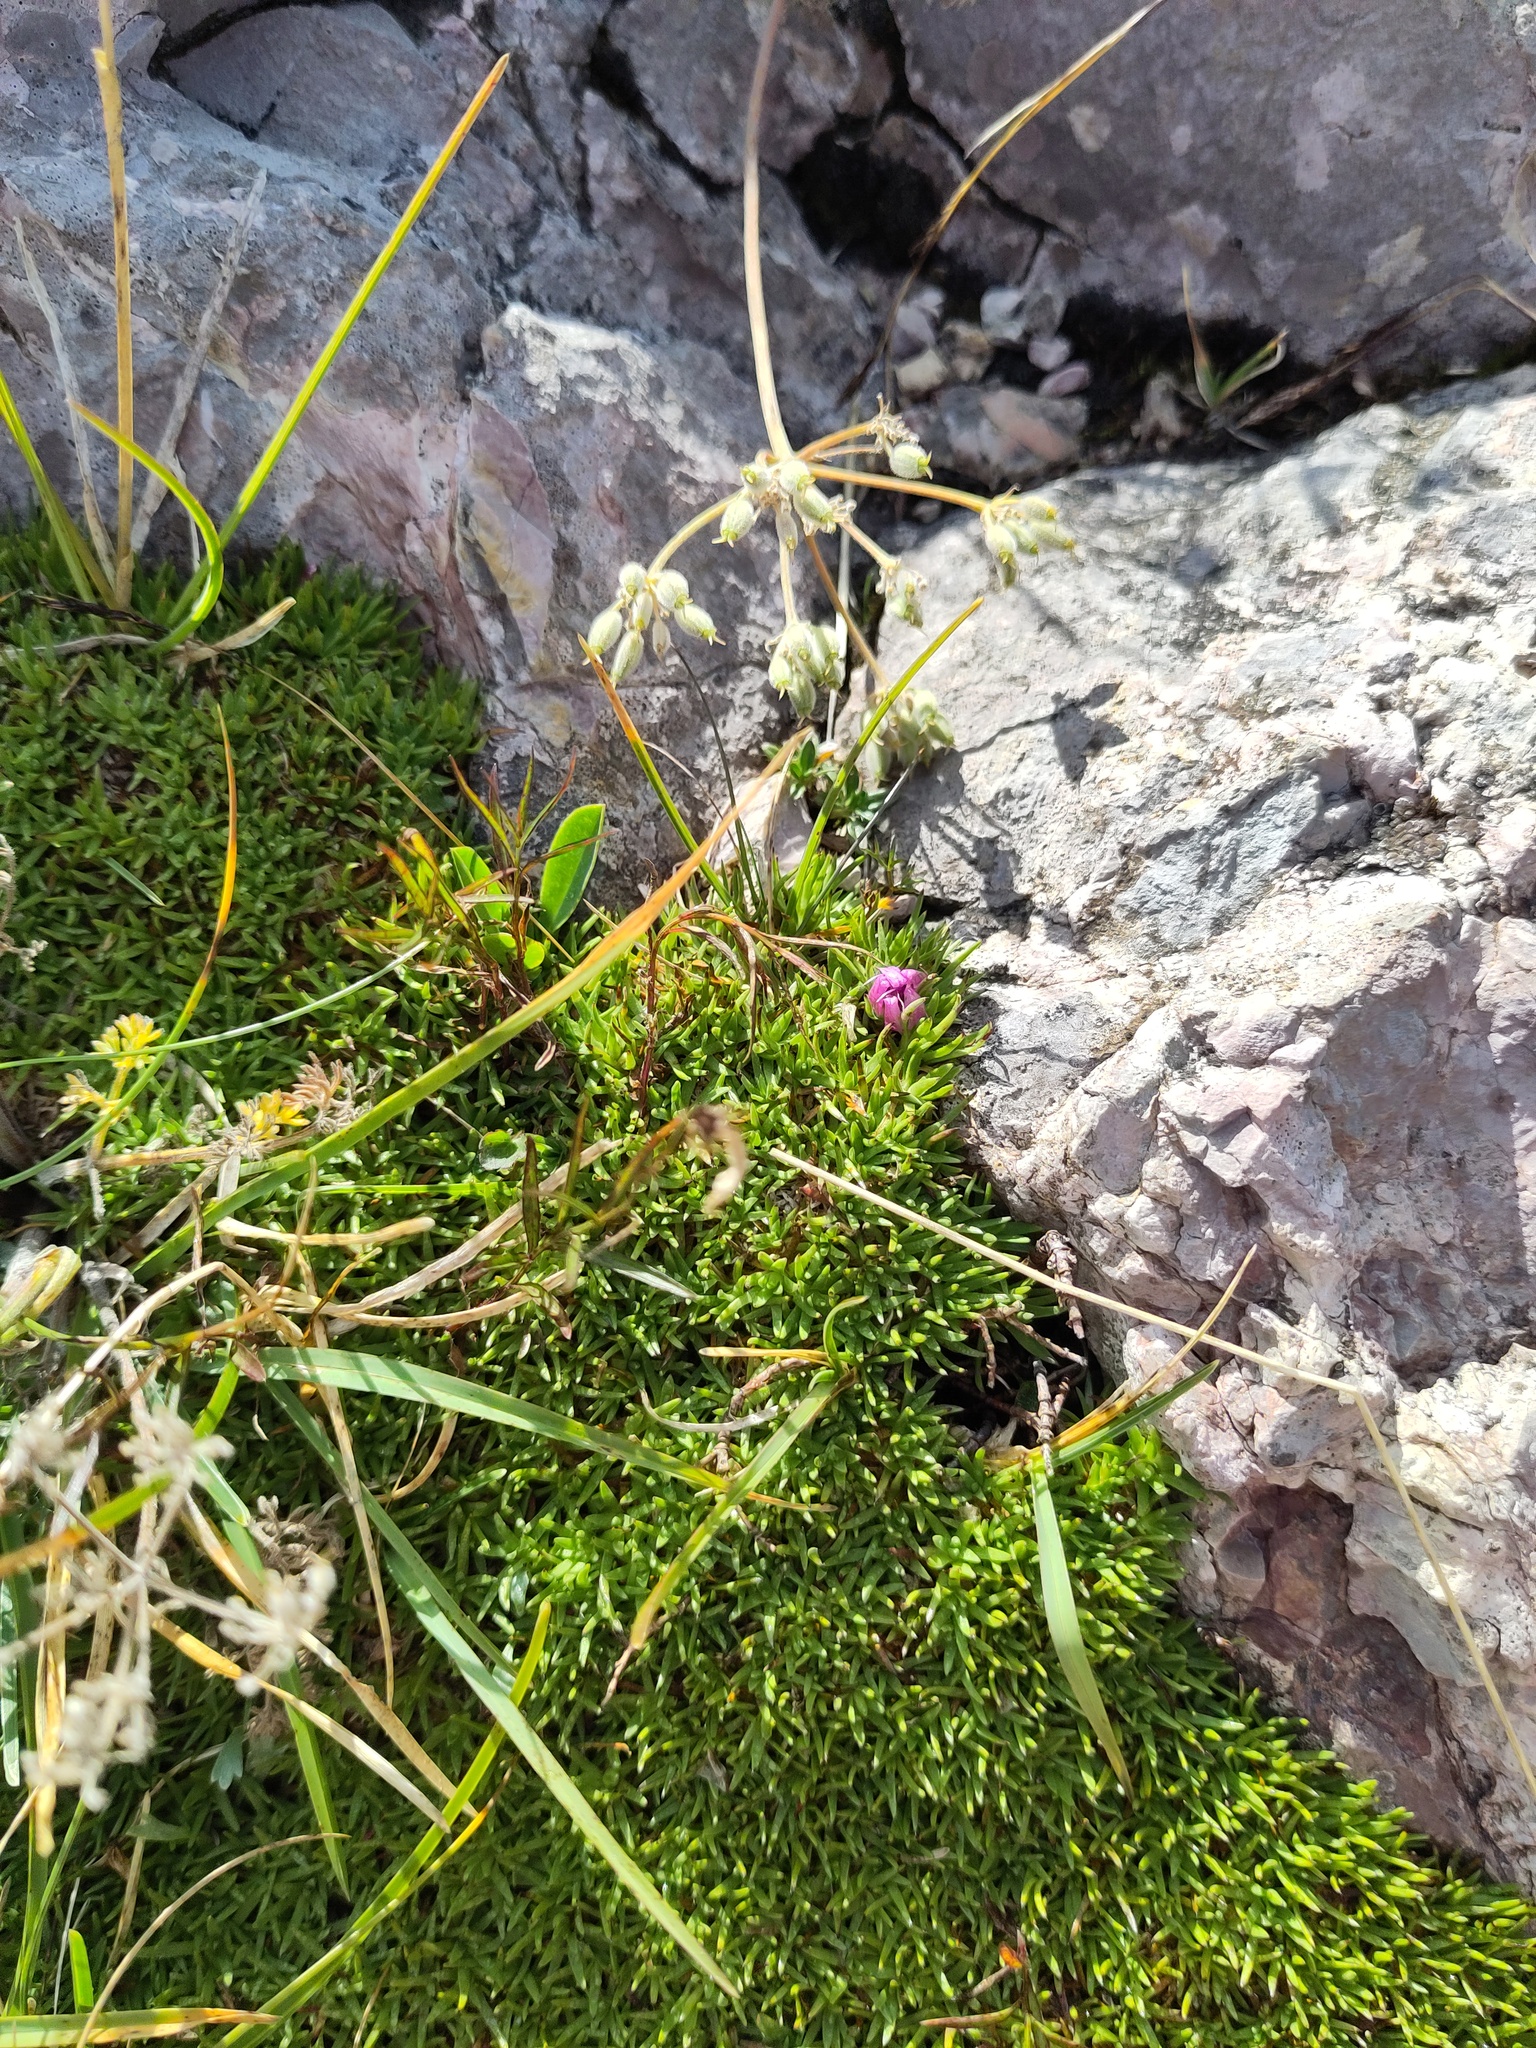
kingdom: Plantae
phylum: Tracheophyta
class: Magnoliopsida
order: Caryophyllales
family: Caryophyllaceae
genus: Silene
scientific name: Silene acaulis
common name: Moss campion
